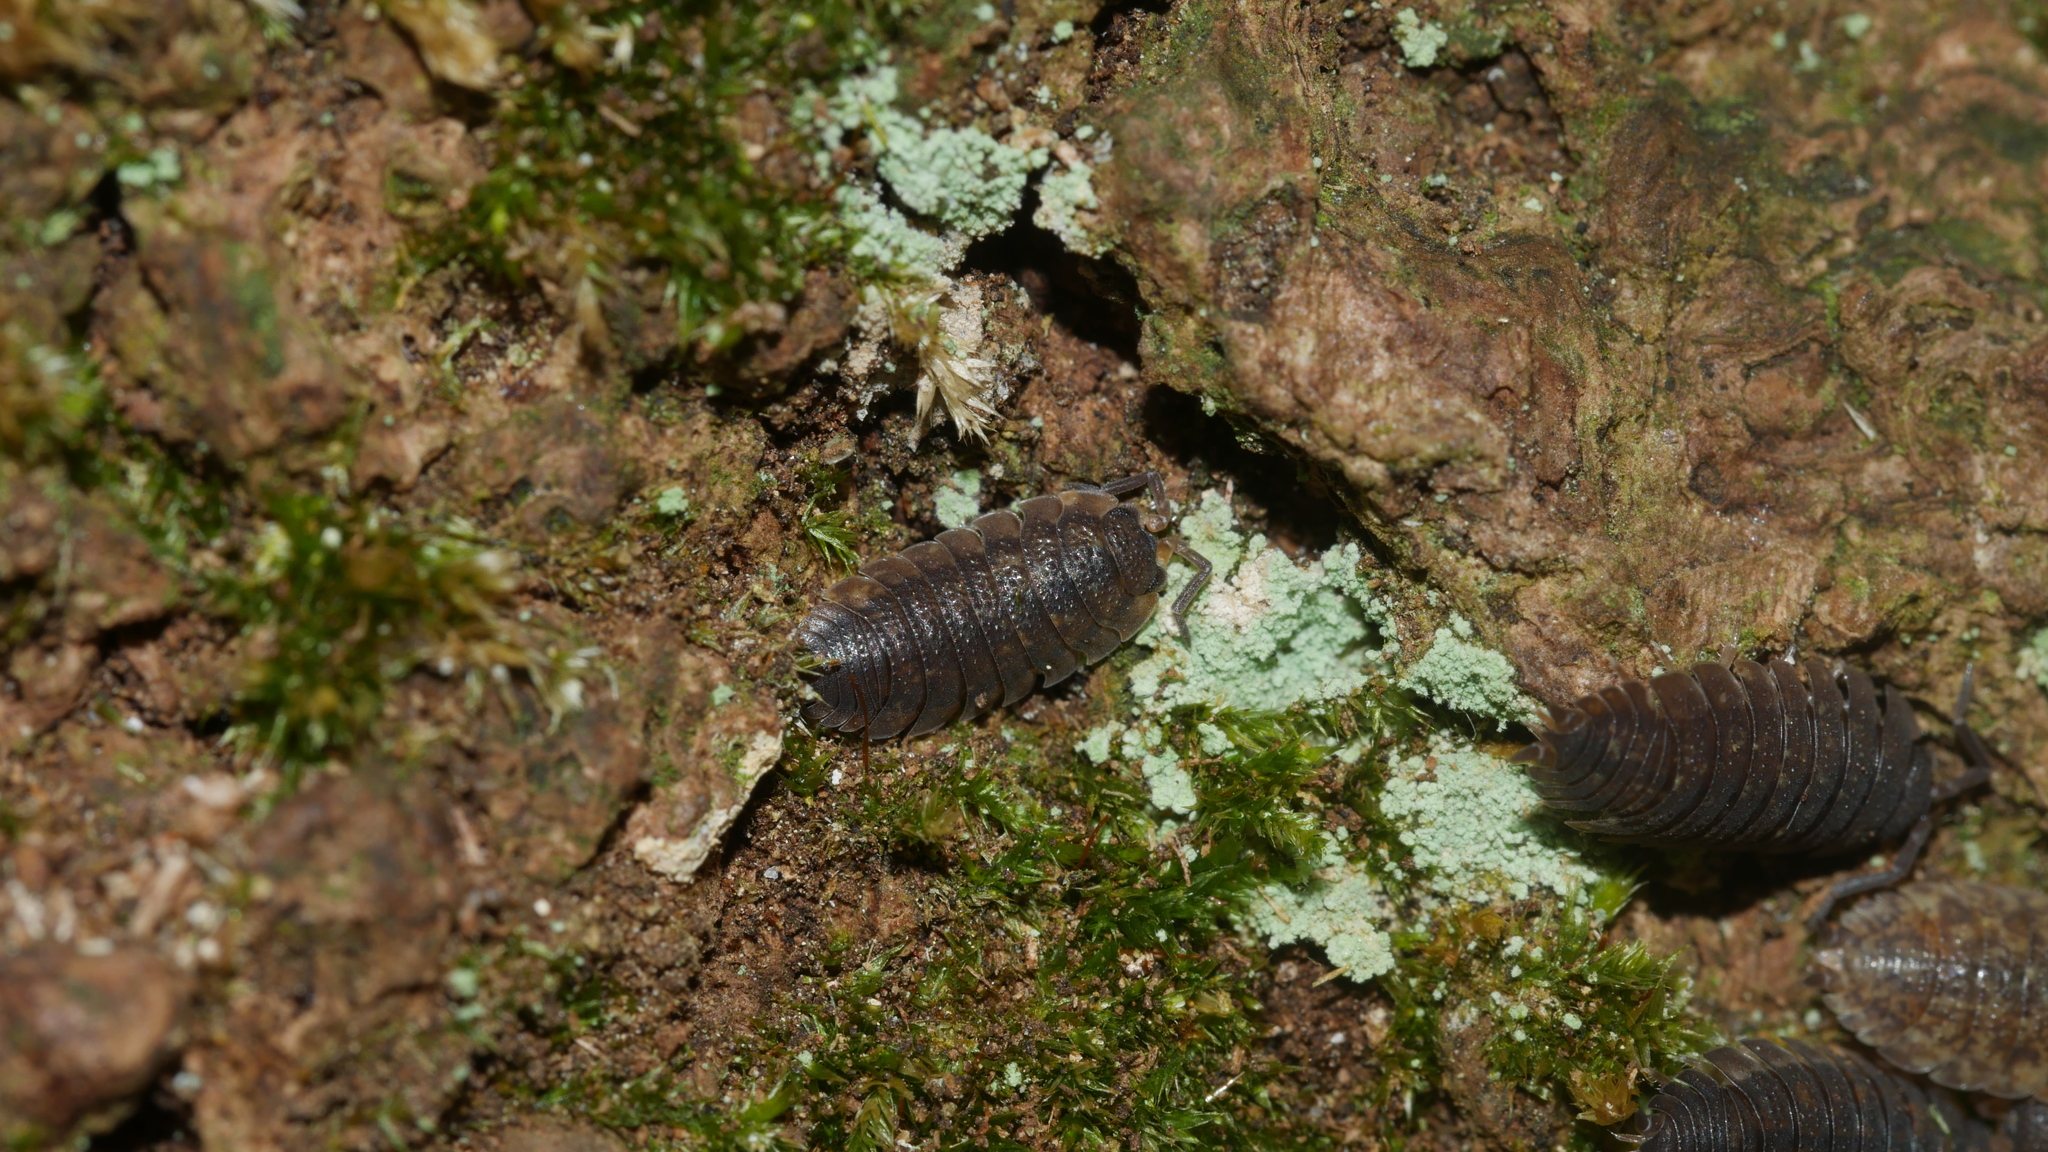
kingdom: Animalia
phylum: Arthropoda
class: Malacostraca
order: Isopoda
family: Porcellionidae
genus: Porcellio
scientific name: Porcellio scaber
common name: Common rough woodlouse
